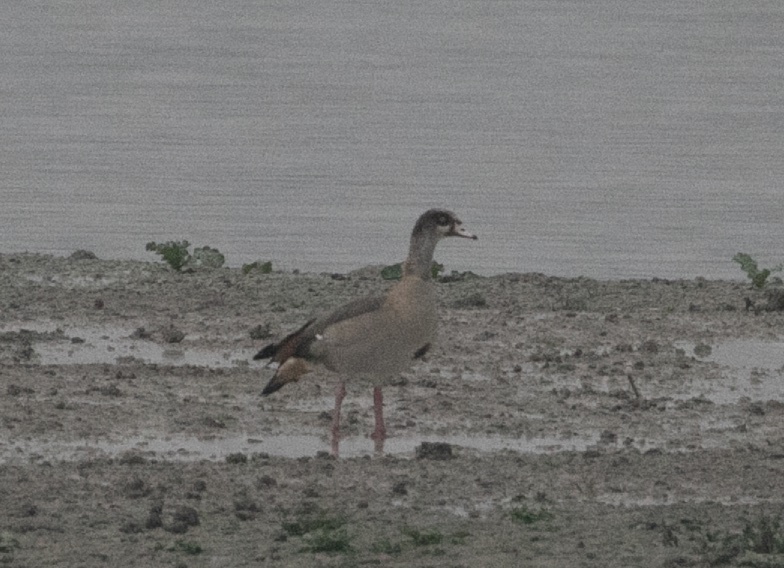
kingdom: Animalia
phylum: Chordata
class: Aves
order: Anseriformes
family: Anatidae
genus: Alopochen
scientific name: Alopochen aegyptiaca
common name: Egyptian goose
